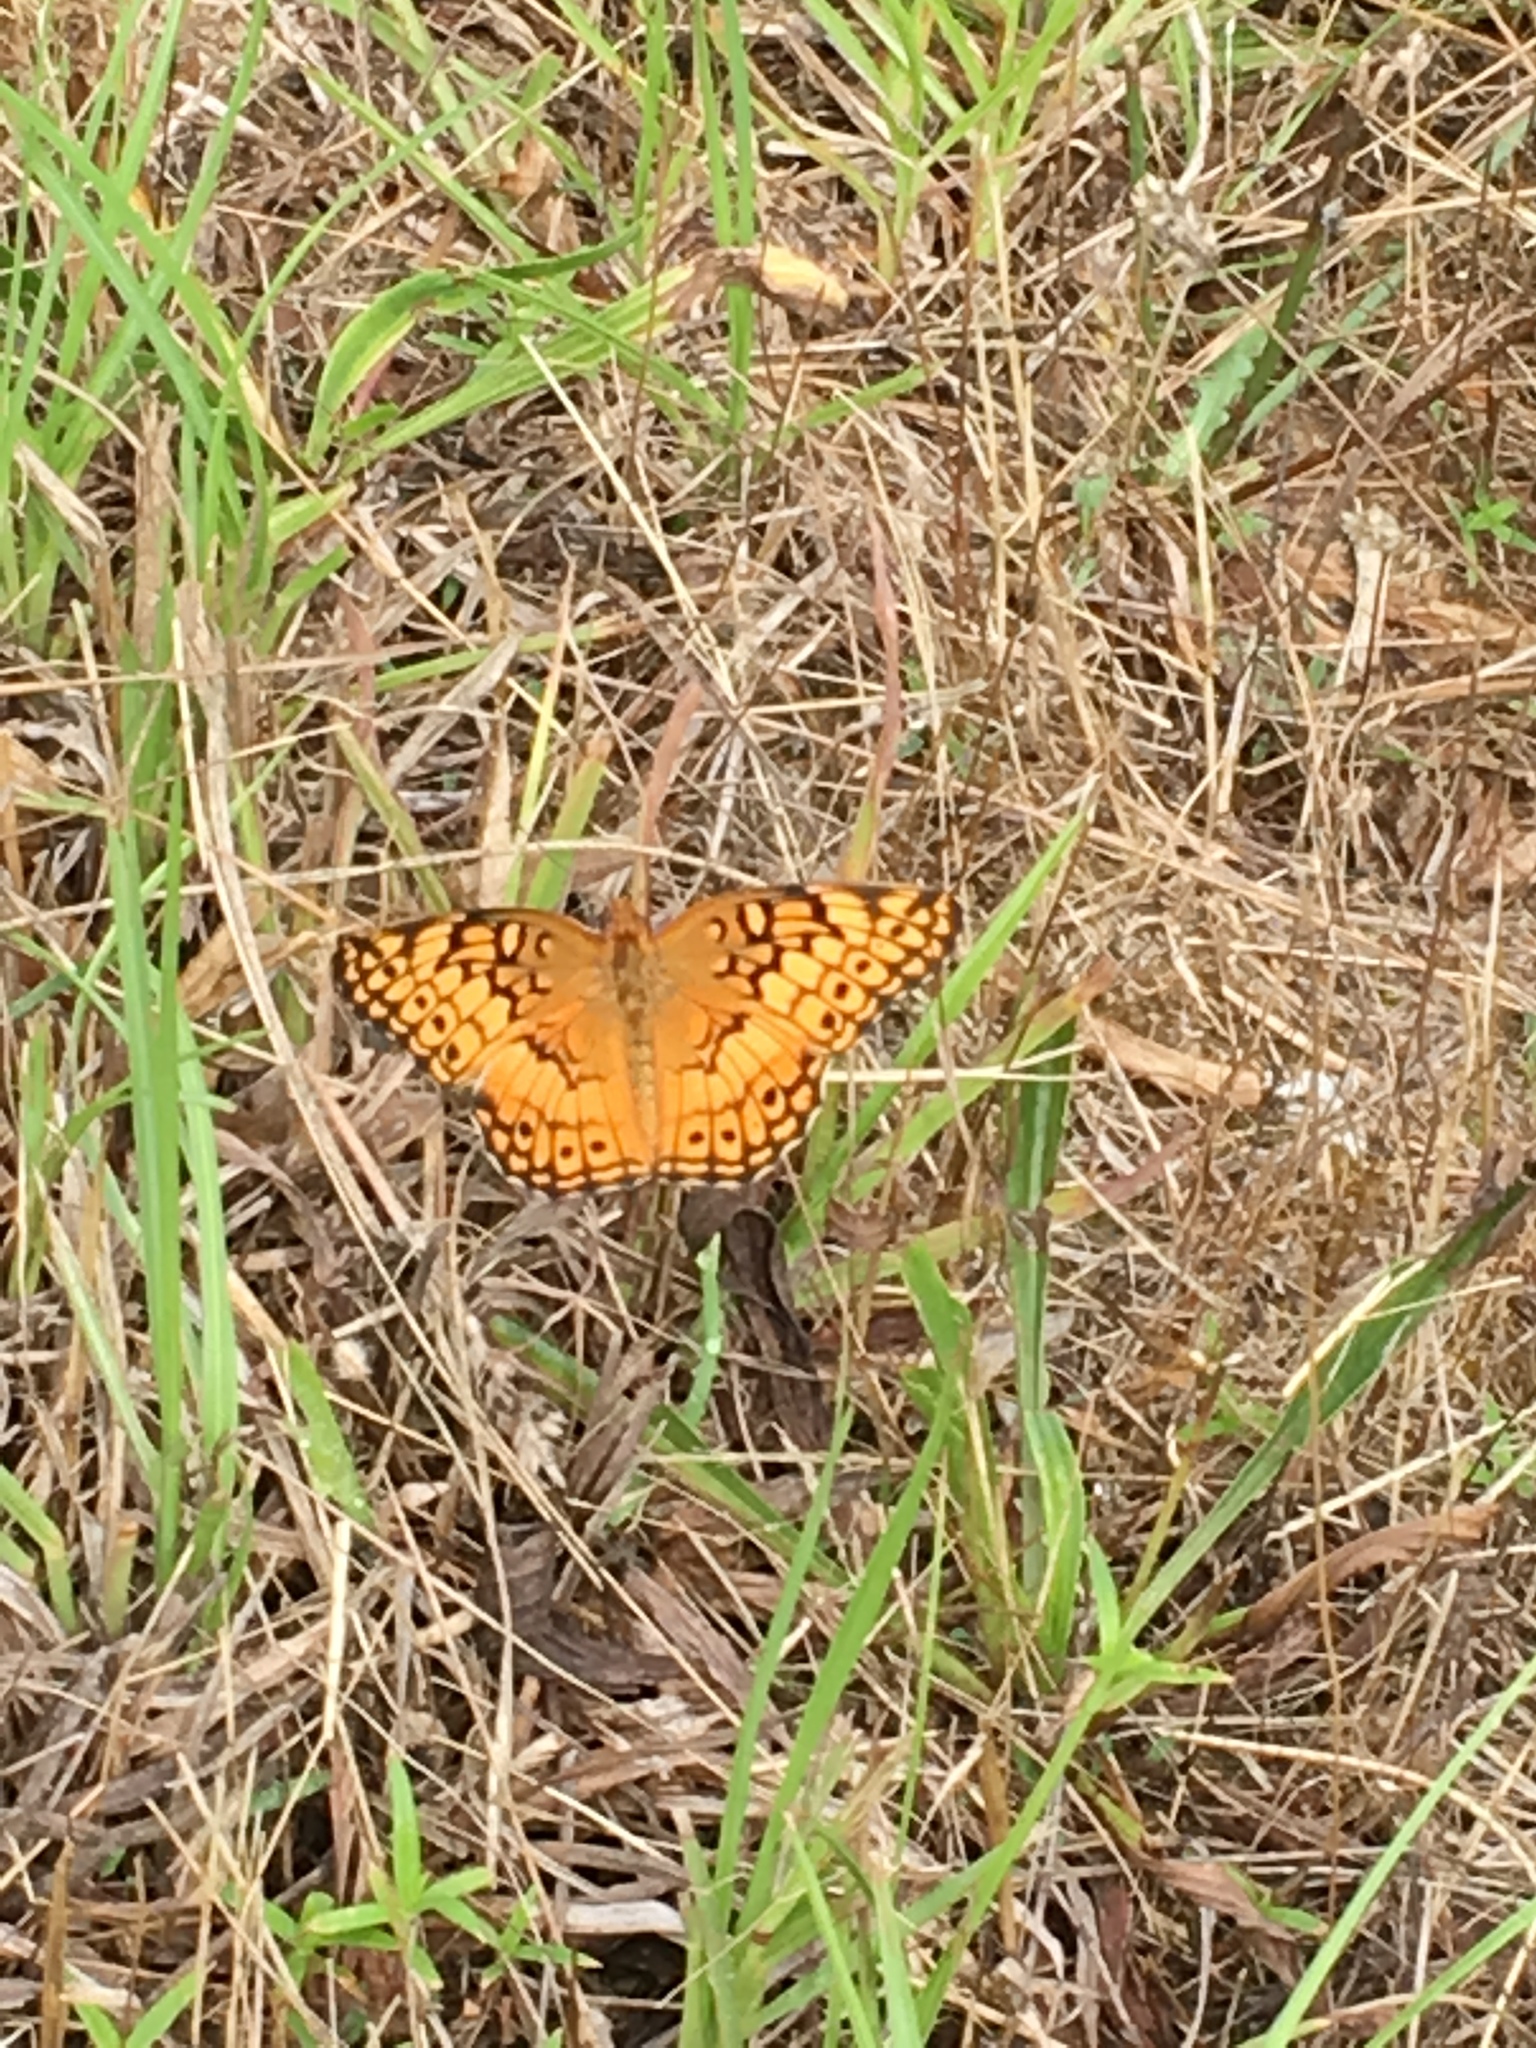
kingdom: Animalia
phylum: Arthropoda
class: Insecta
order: Lepidoptera
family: Nymphalidae
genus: Euptoieta
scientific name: Euptoieta claudia
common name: Variegated fritillary
